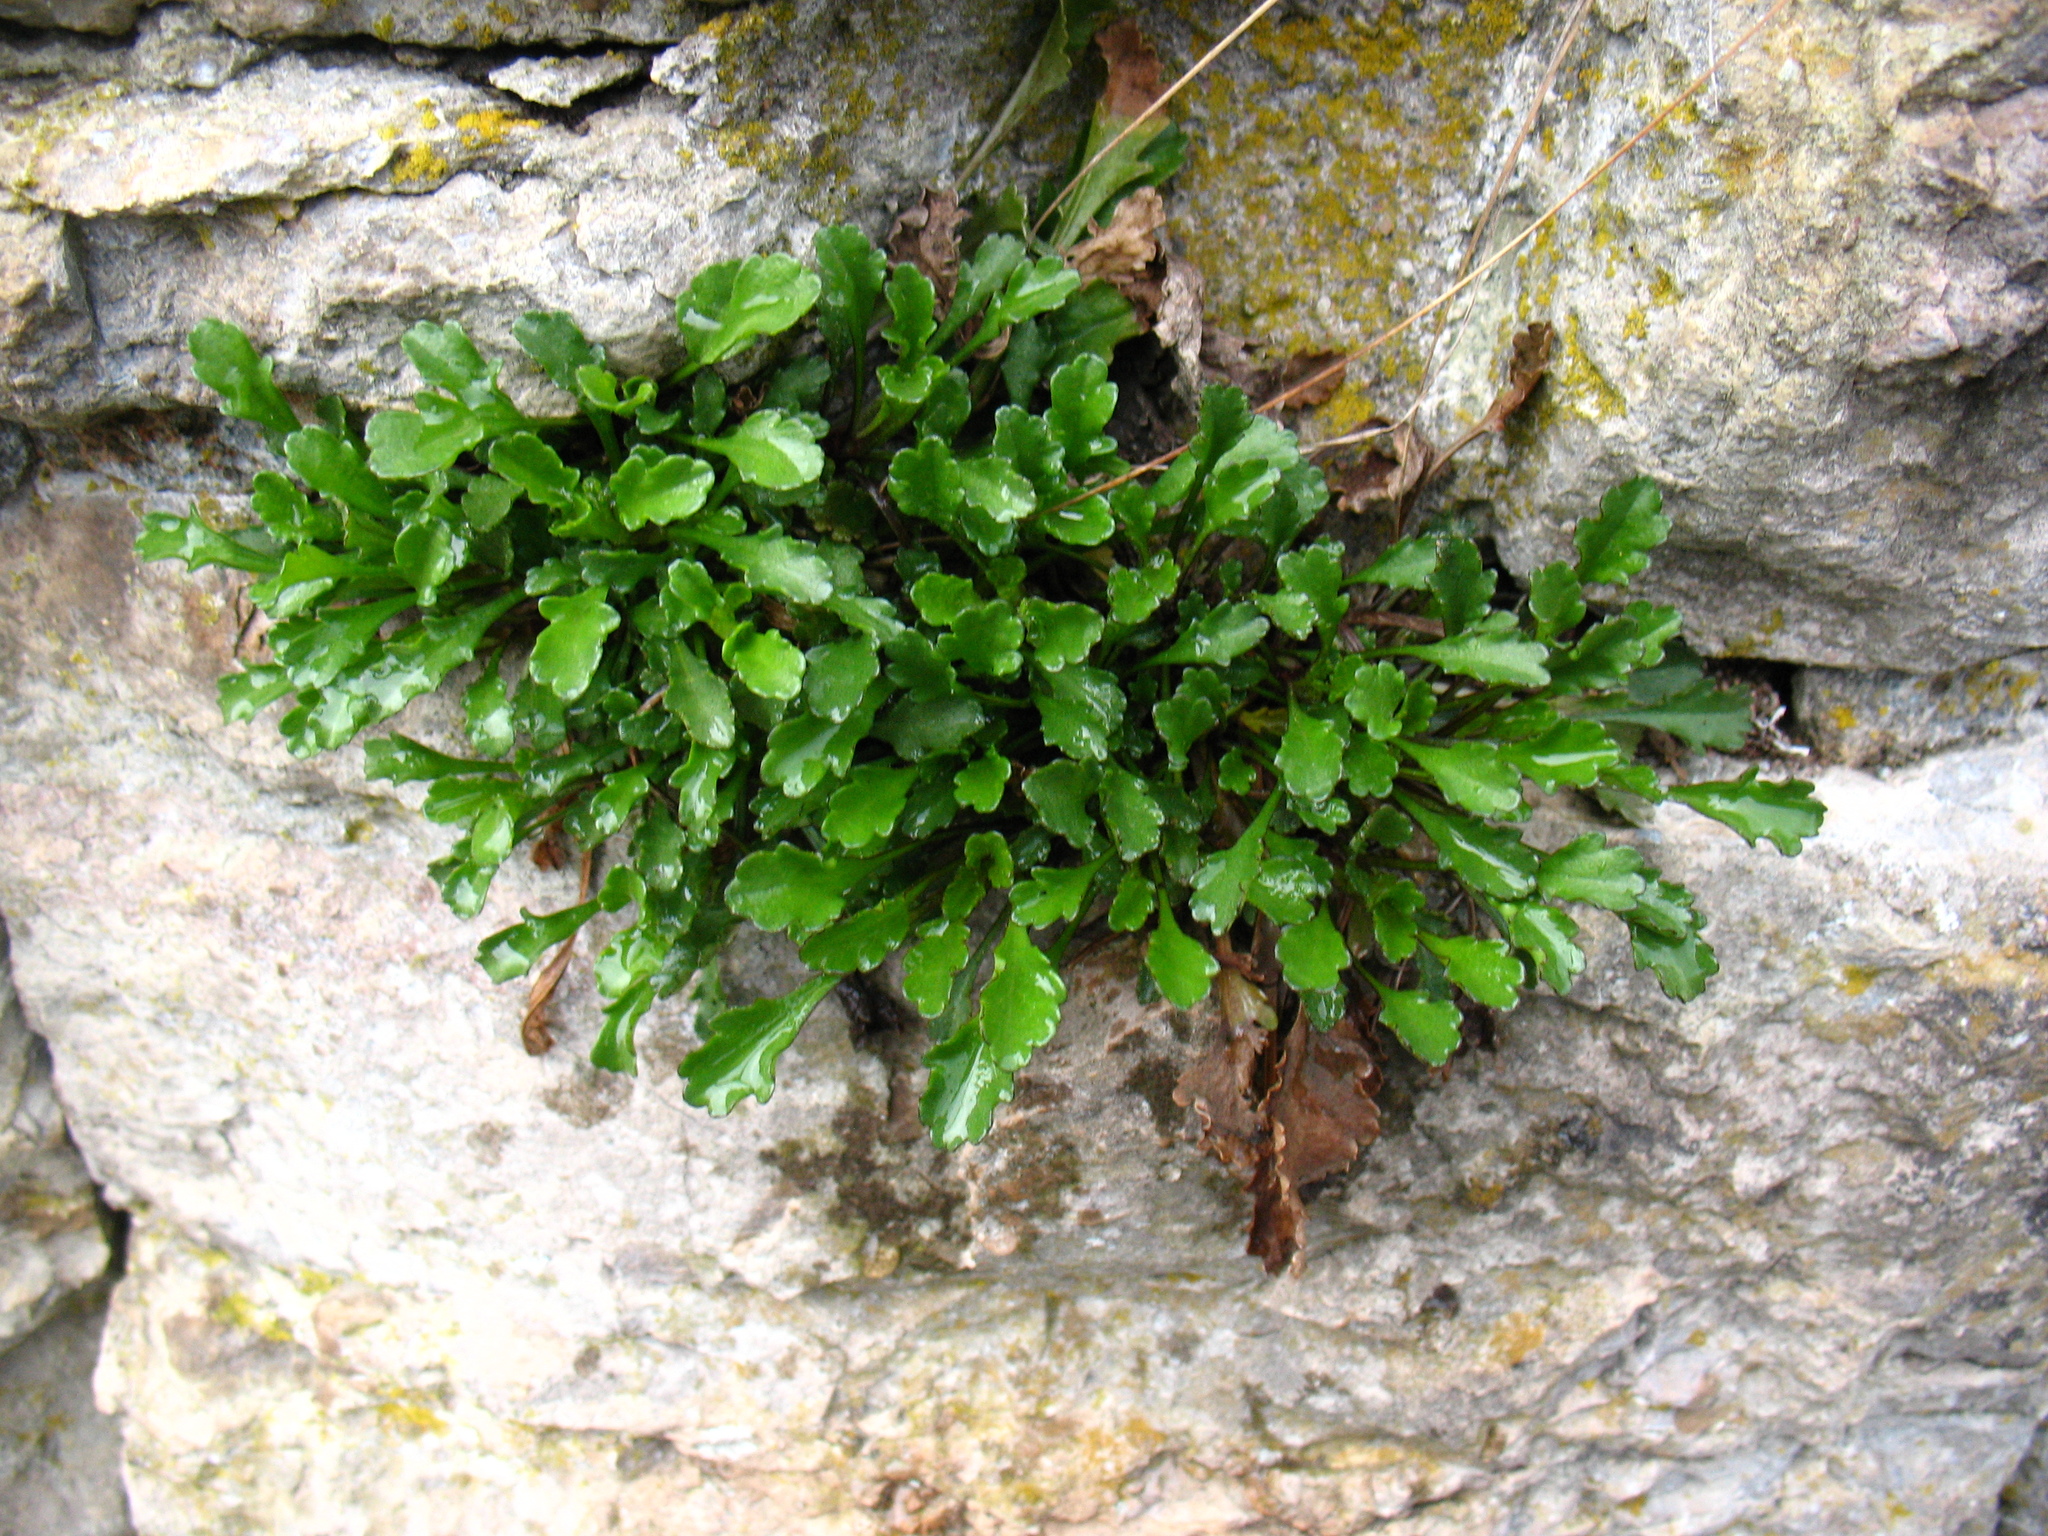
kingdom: Plantae
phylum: Tracheophyta
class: Magnoliopsida
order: Asterales
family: Asteraceae
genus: Leucanthemum
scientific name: Leucanthemum vulgare
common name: Oxeye daisy
